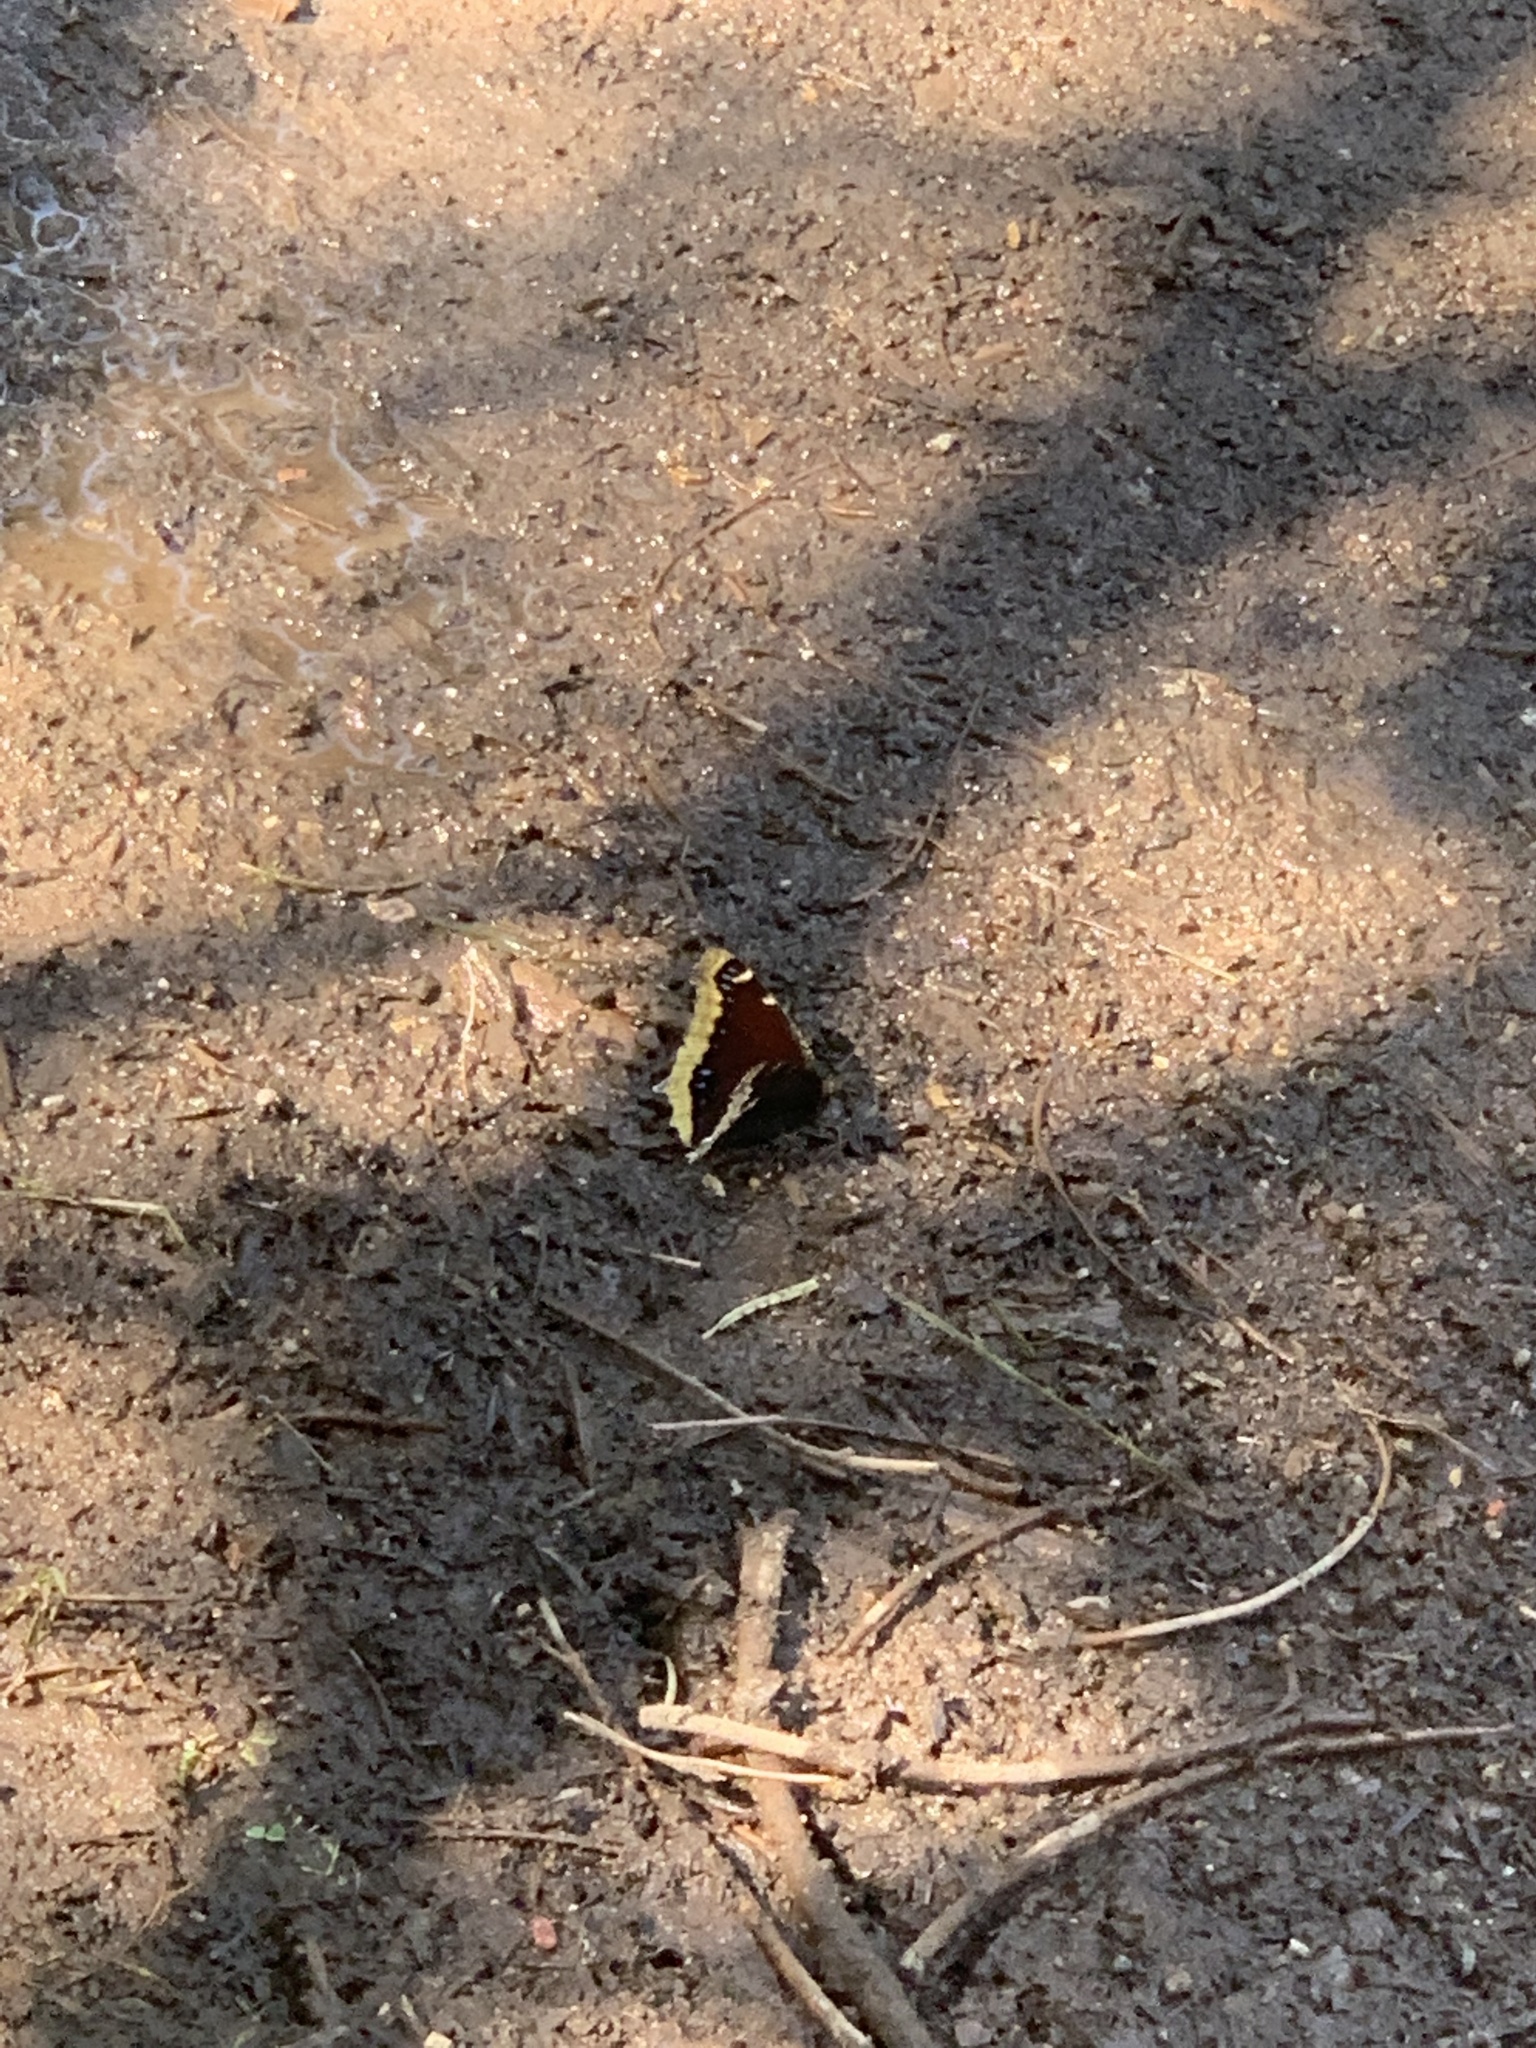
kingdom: Animalia
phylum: Arthropoda
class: Insecta
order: Lepidoptera
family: Nymphalidae
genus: Nymphalis
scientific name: Nymphalis antiopa
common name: Camberwell beauty
